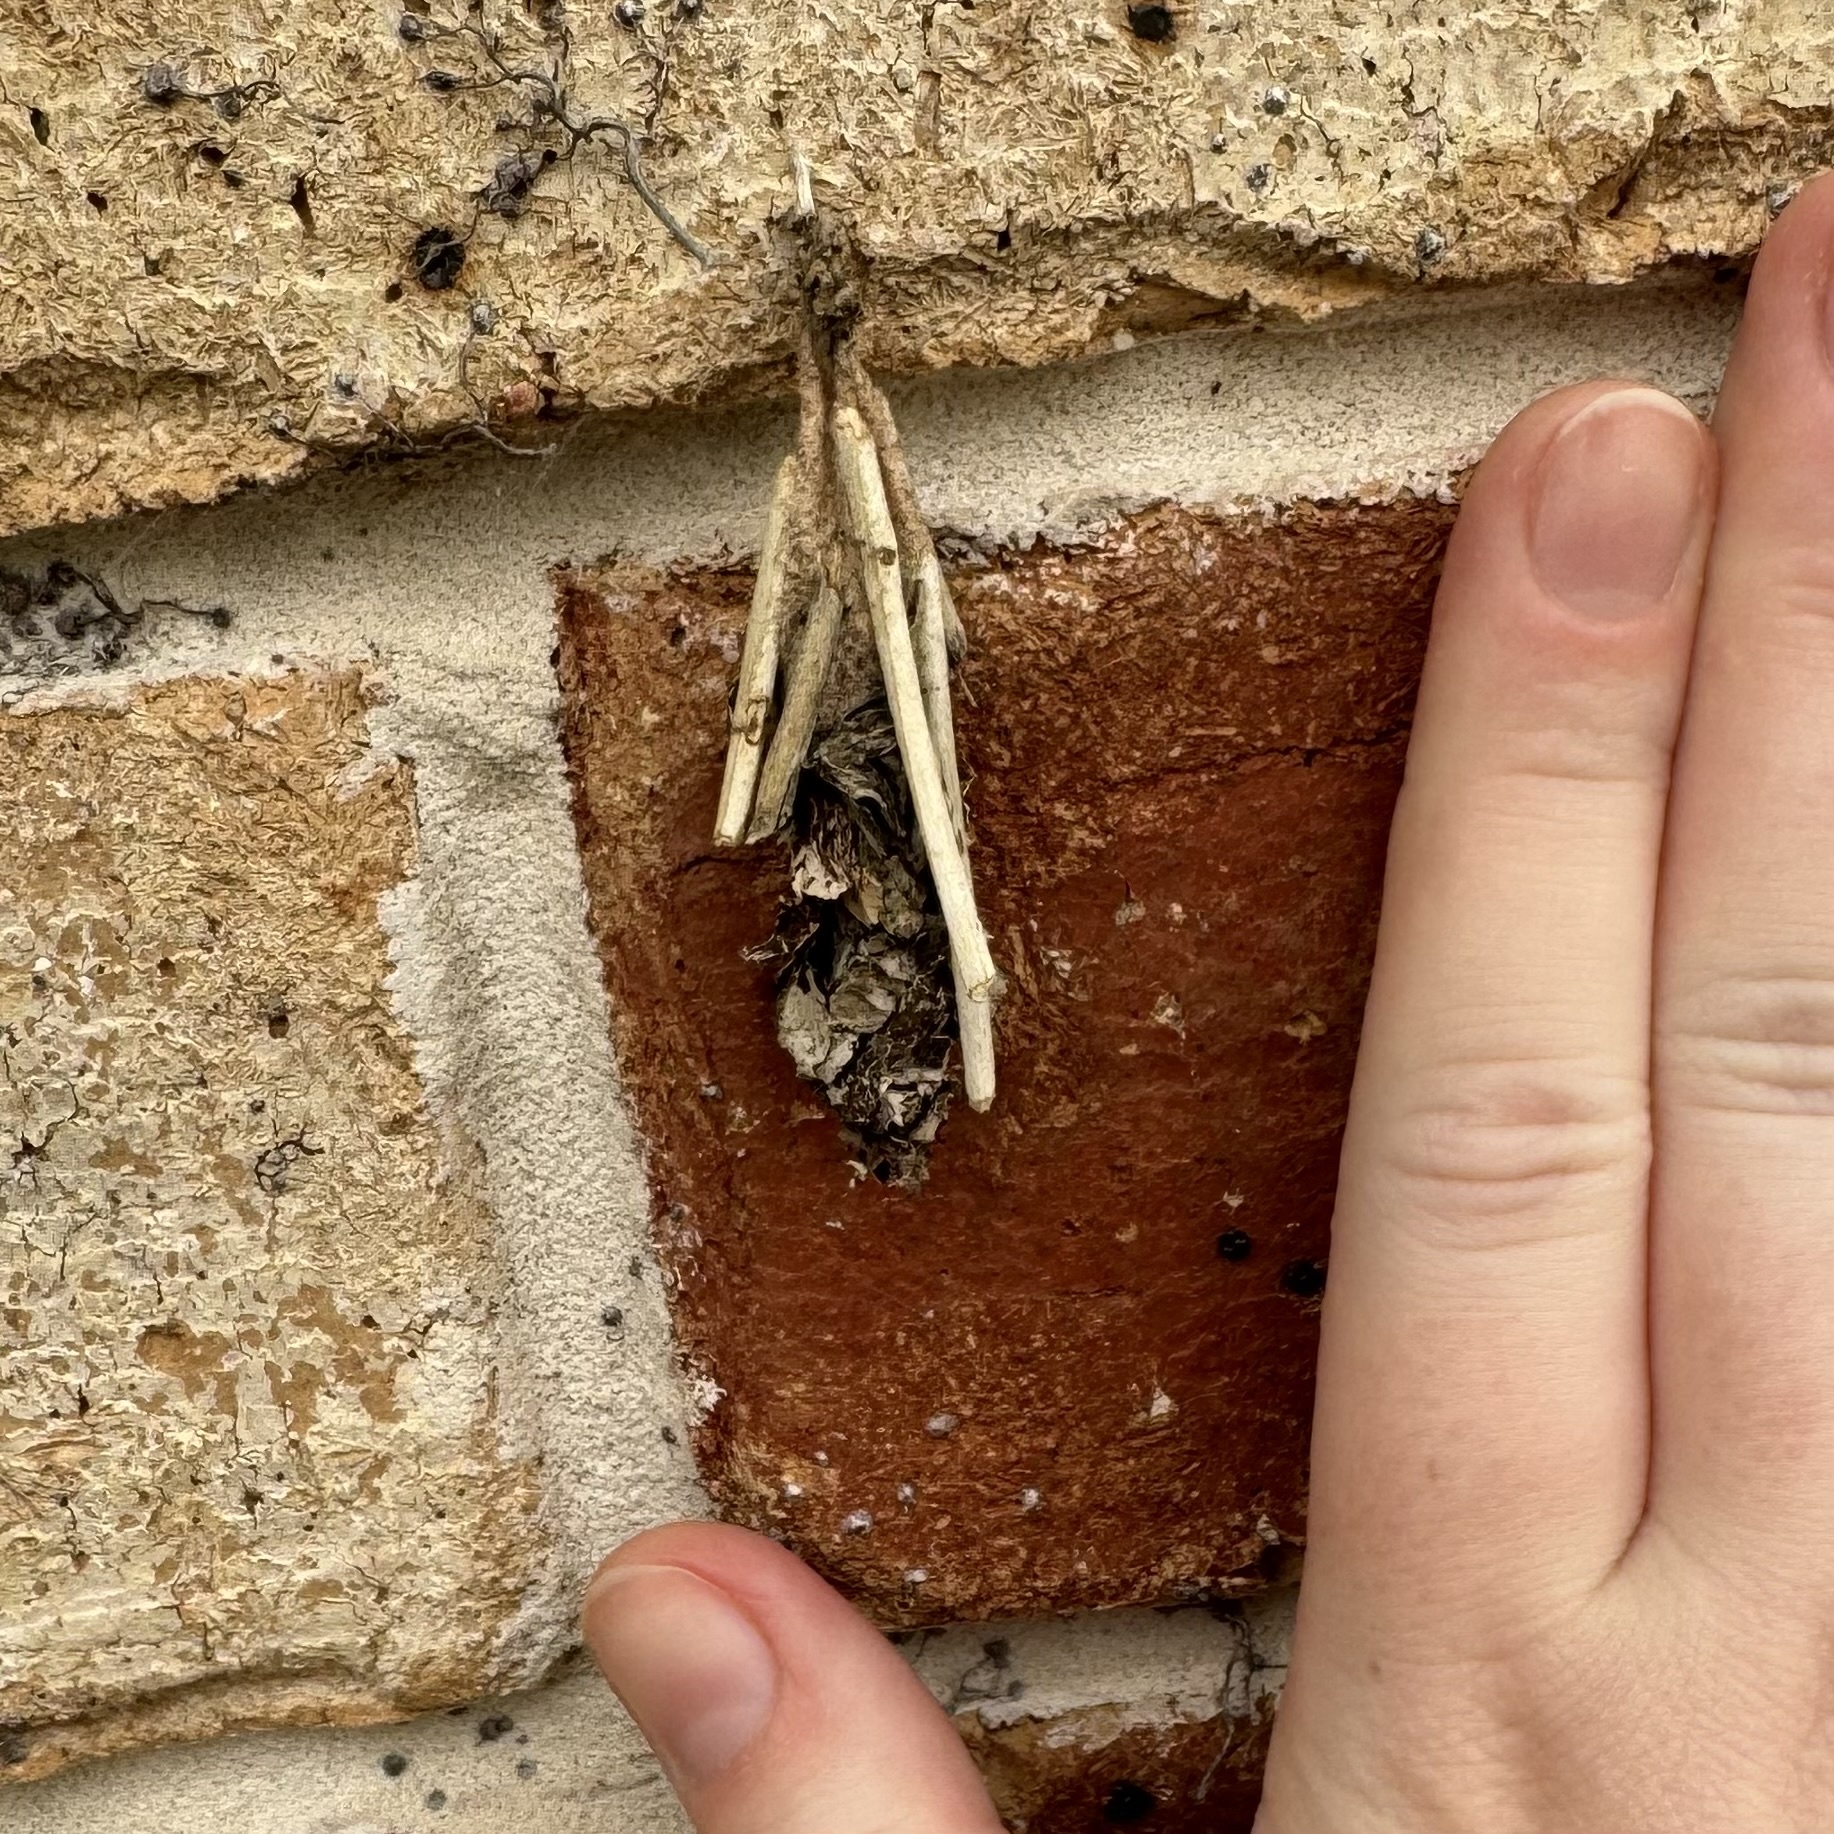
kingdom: Animalia
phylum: Arthropoda
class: Insecta
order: Lepidoptera
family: Psychidae
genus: Metura
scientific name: Metura elongatus
